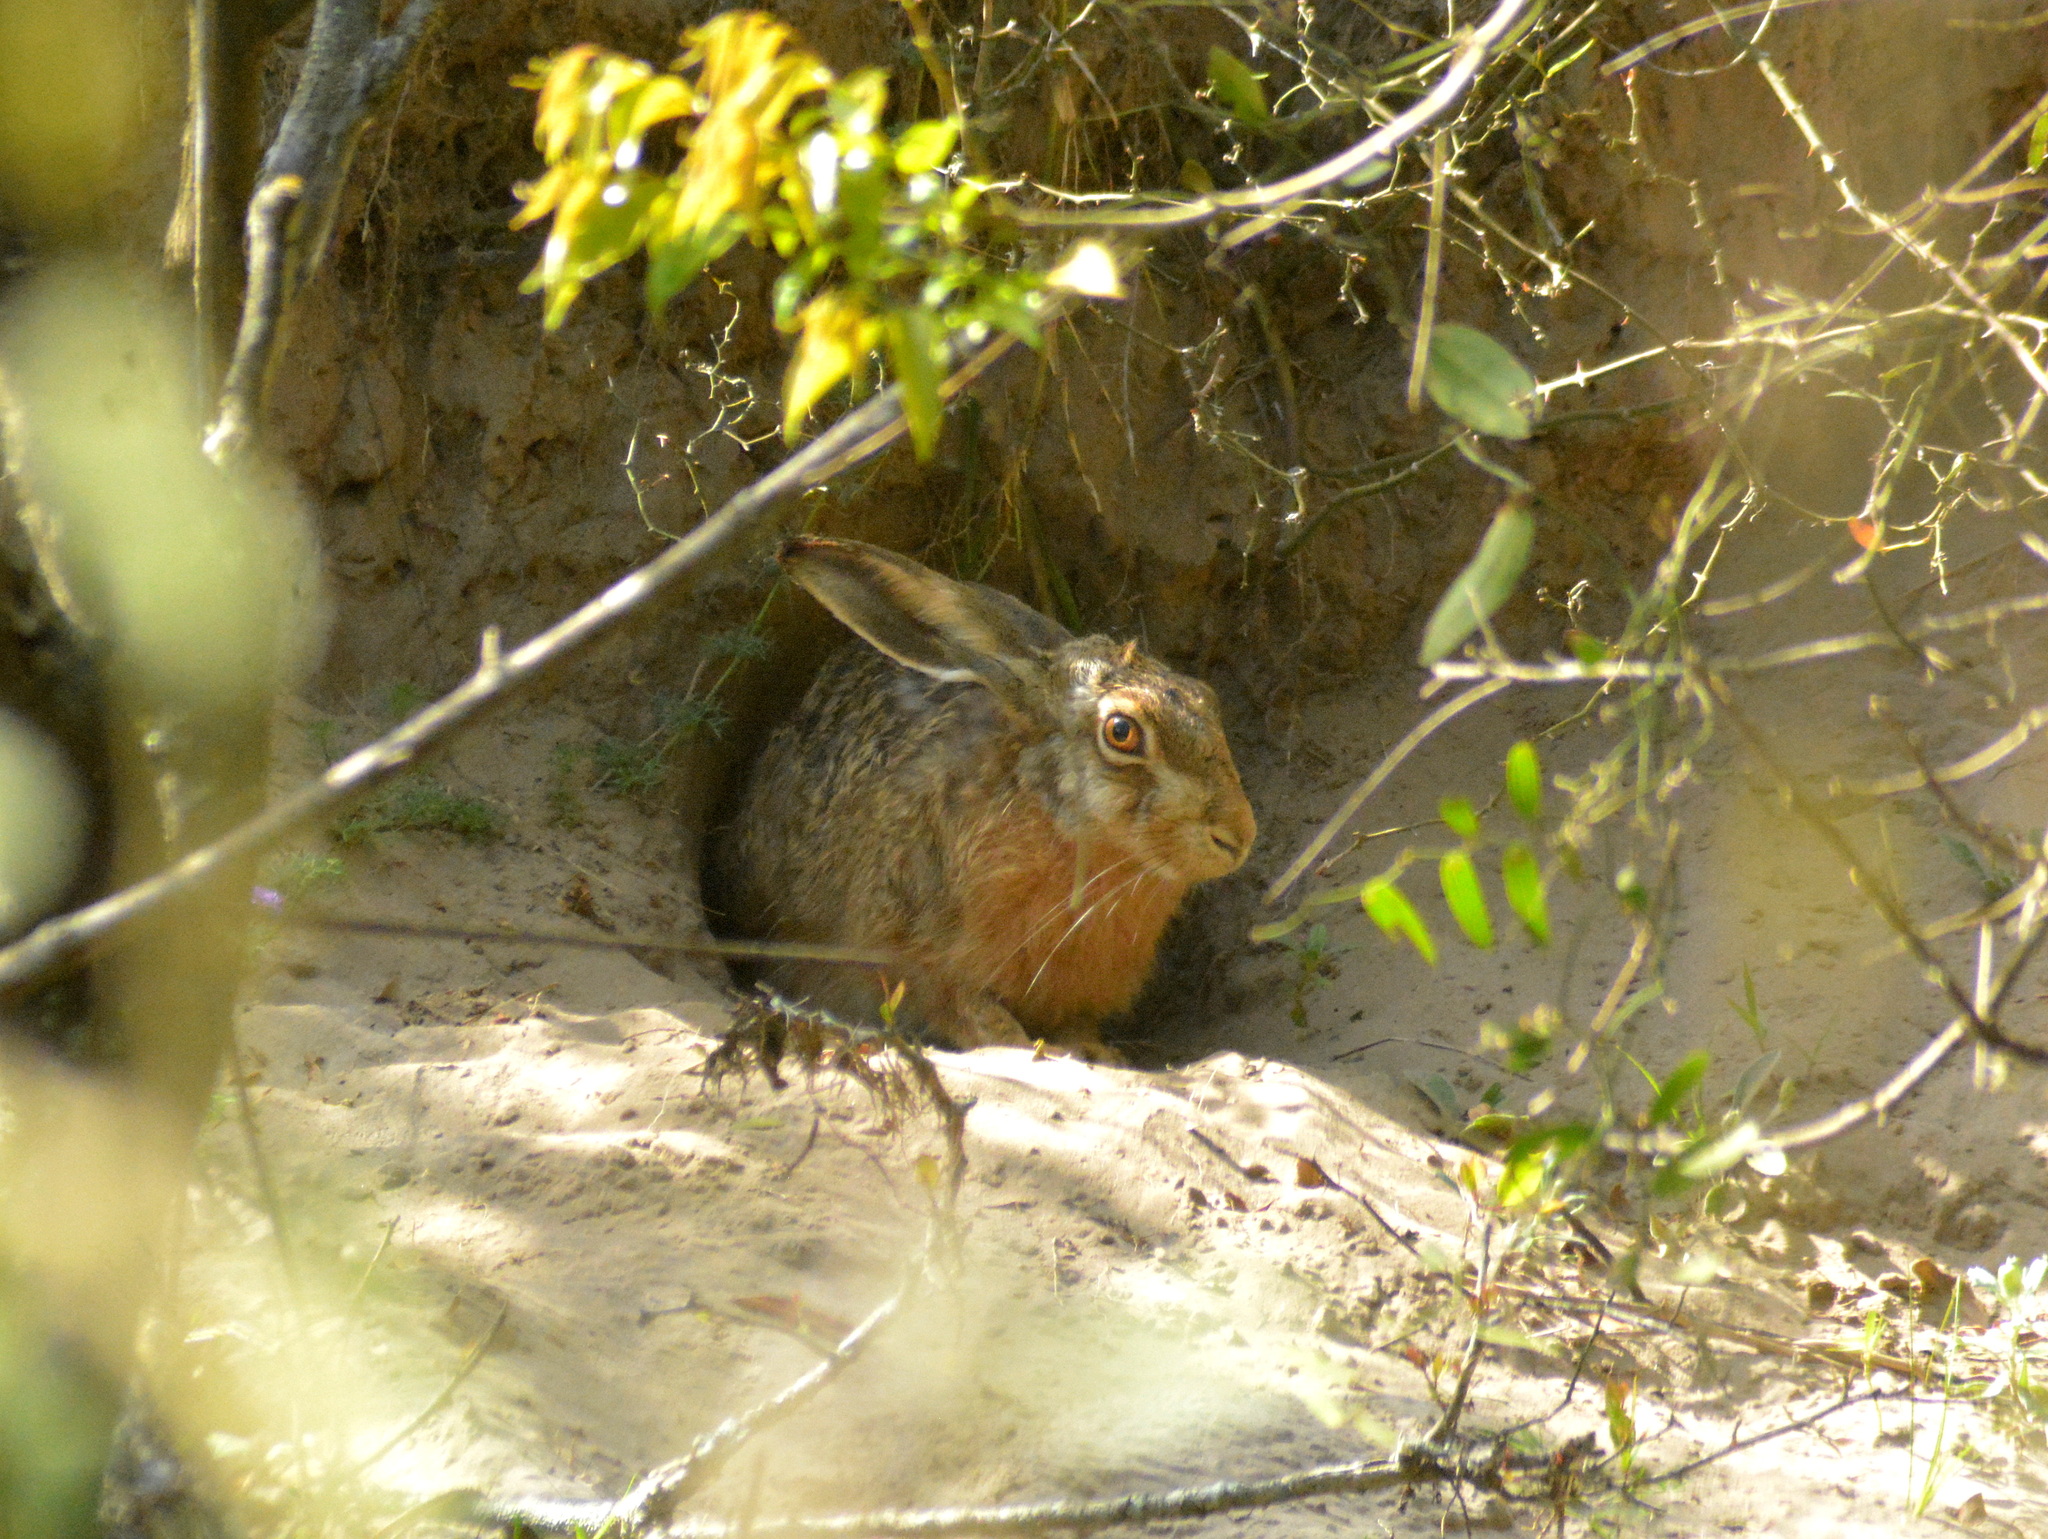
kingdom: Animalia
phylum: Chordata
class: Mammalia
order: Lagomorpha
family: Leporidae
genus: Lepus
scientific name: Lepus europaeus
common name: European hare
